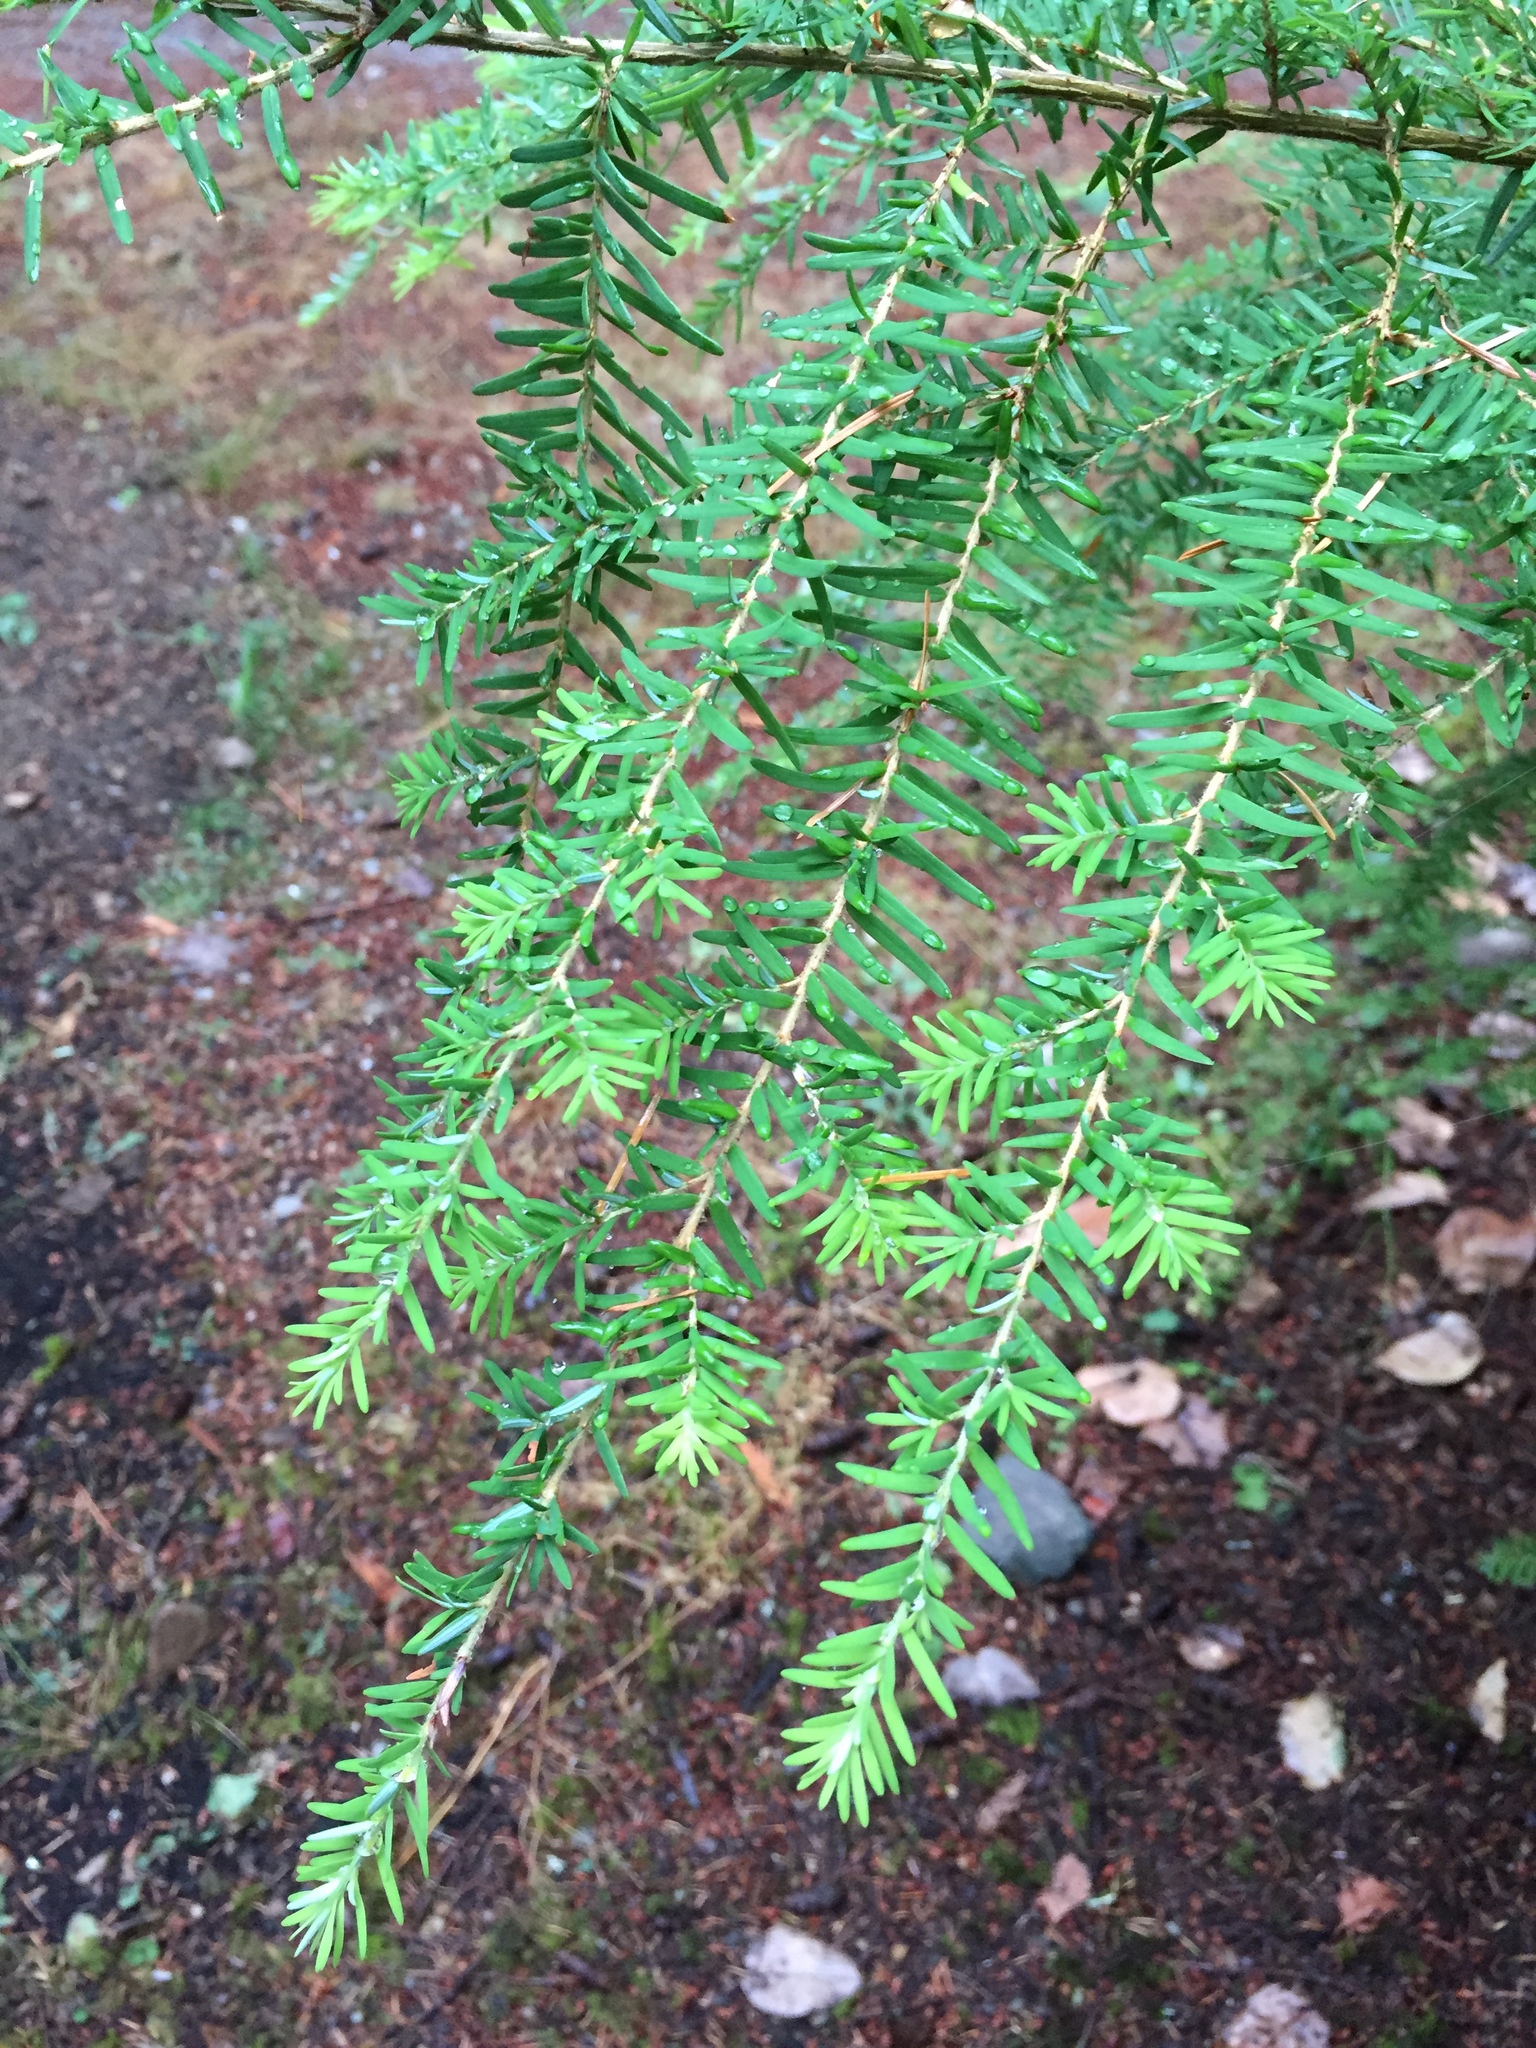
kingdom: Plantae
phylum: Tracheophyta
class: Pinopsida
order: Pinales
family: Pinaceae
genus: Tsuga
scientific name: Tsuga heterophylla
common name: Western hemlock
